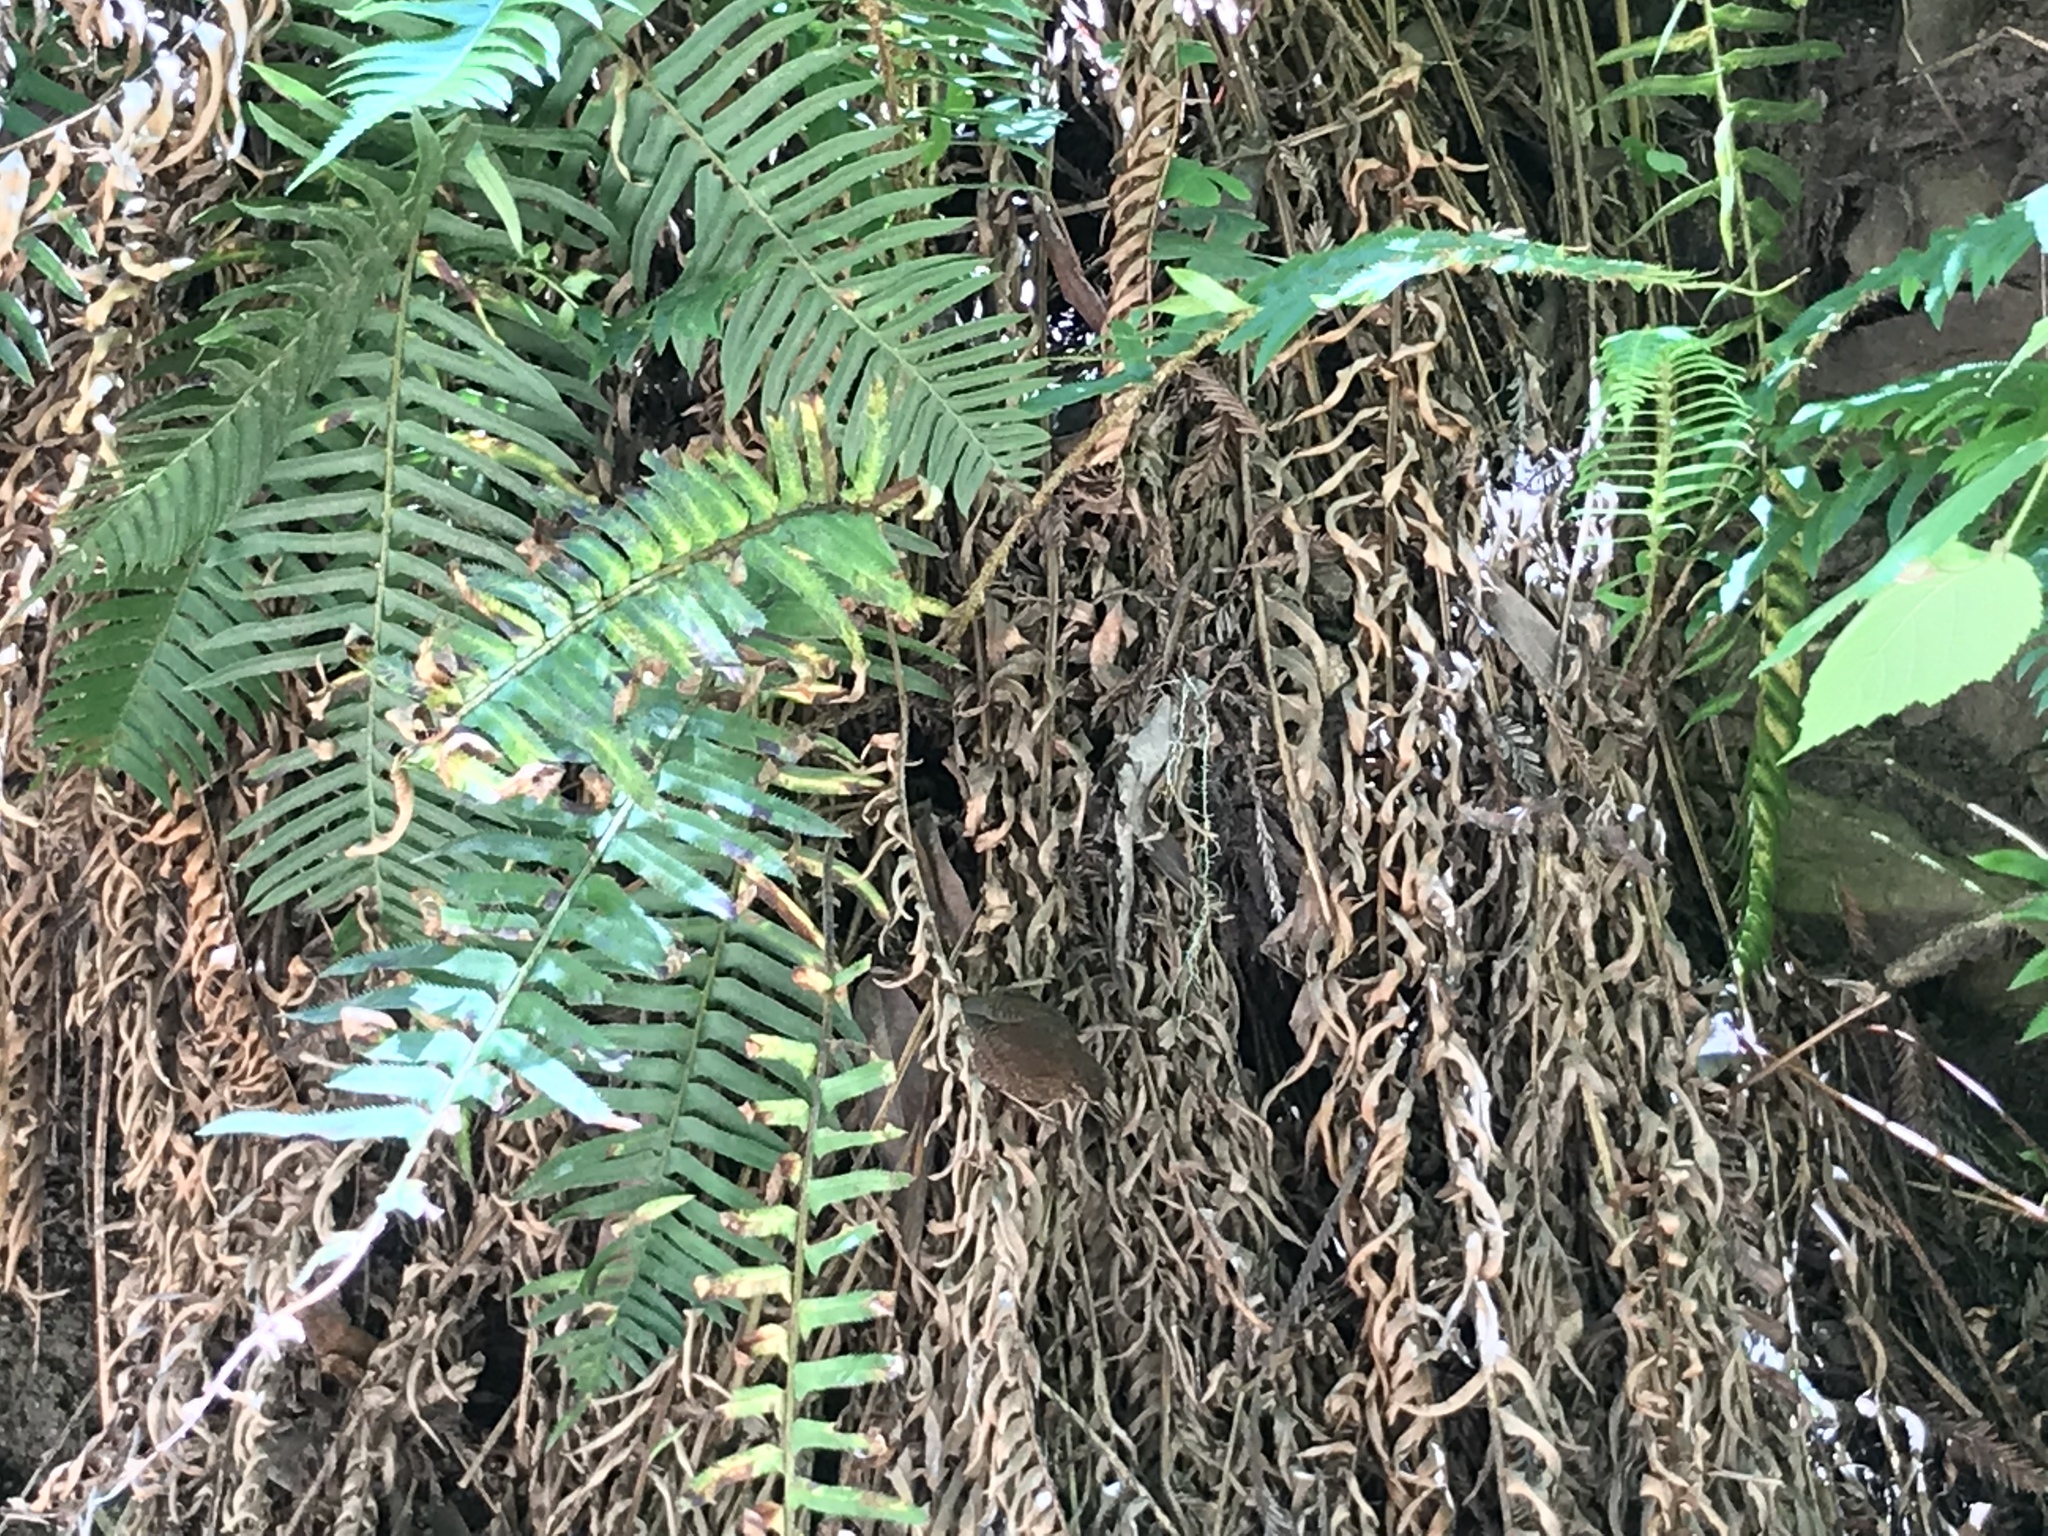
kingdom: Animalia
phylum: Chordata
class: Aves
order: Passeriformes
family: Troglodytidae
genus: Troglodytes
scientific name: Troglodytes pacificus
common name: Pacific wren
